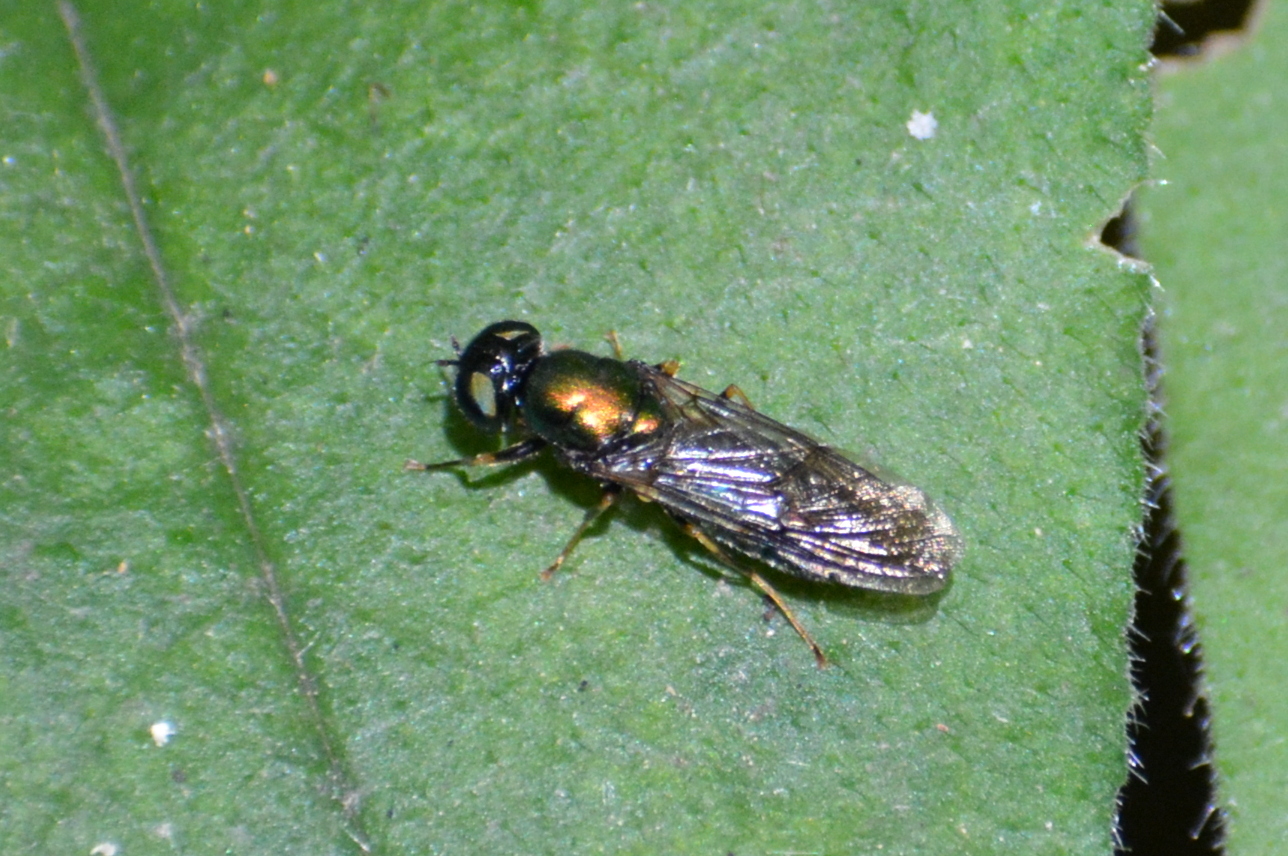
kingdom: Animalia
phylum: Arthropoda
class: Insecta
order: Diptera
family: Stratiomyidae
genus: Chloromyia
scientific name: Chloromyia speciosa
